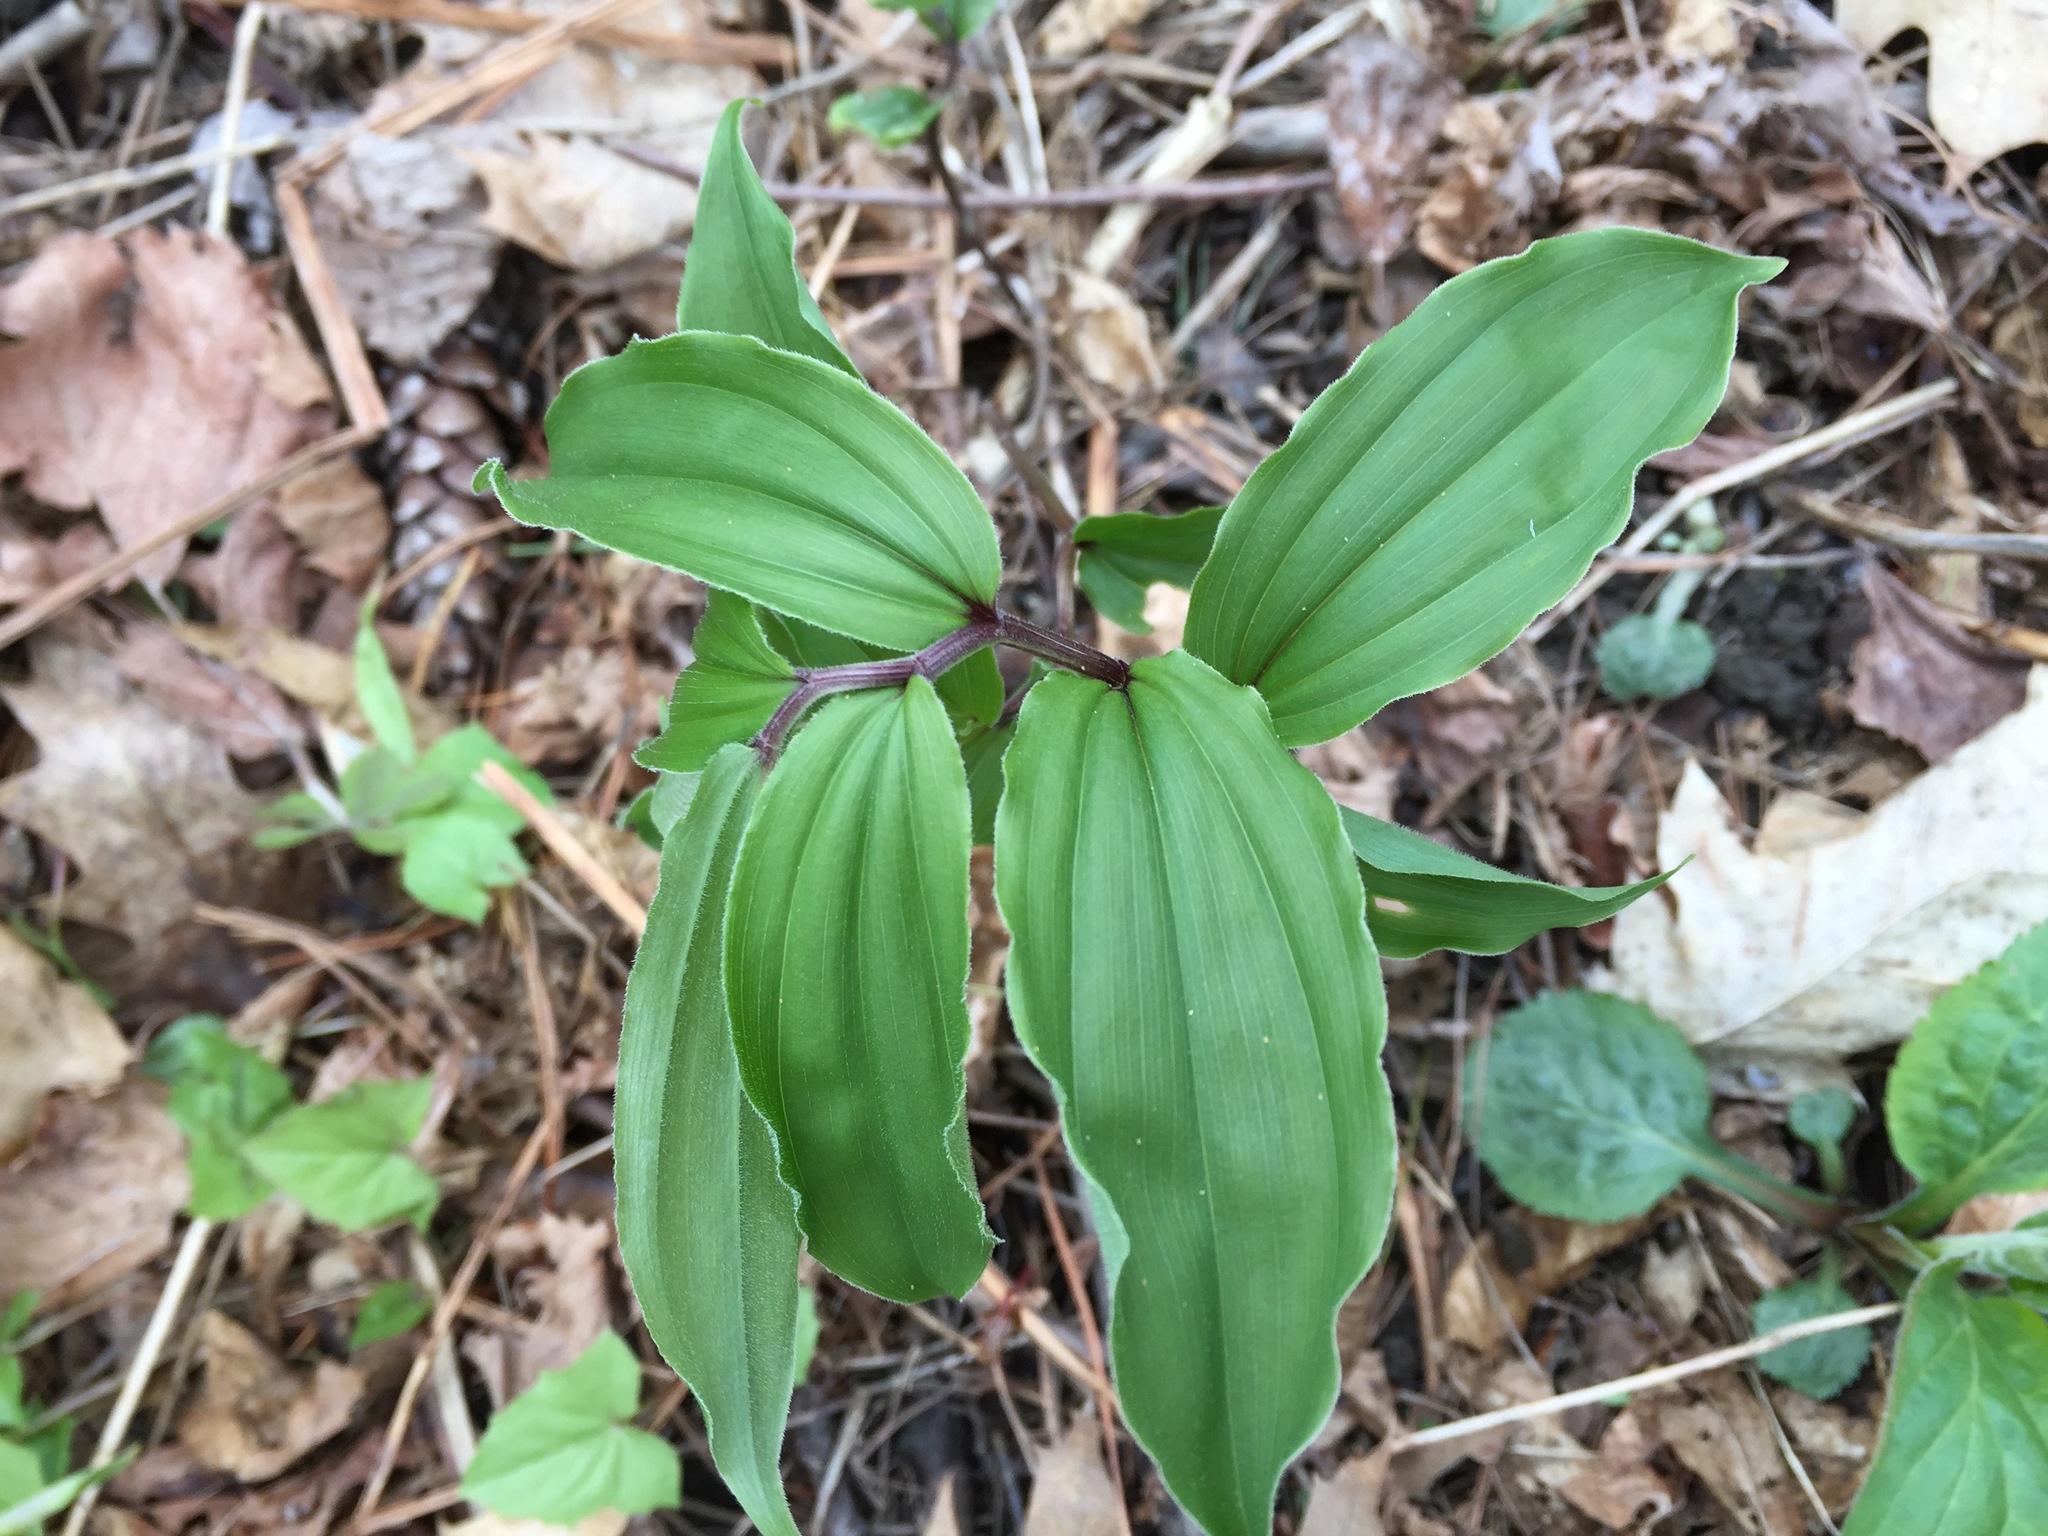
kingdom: Plantae
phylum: Tracheophyta
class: Liliopsida
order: Asparagales
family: Asparagaceae
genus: Maianthemum
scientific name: Maianthemum racemosum
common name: False spikenard
